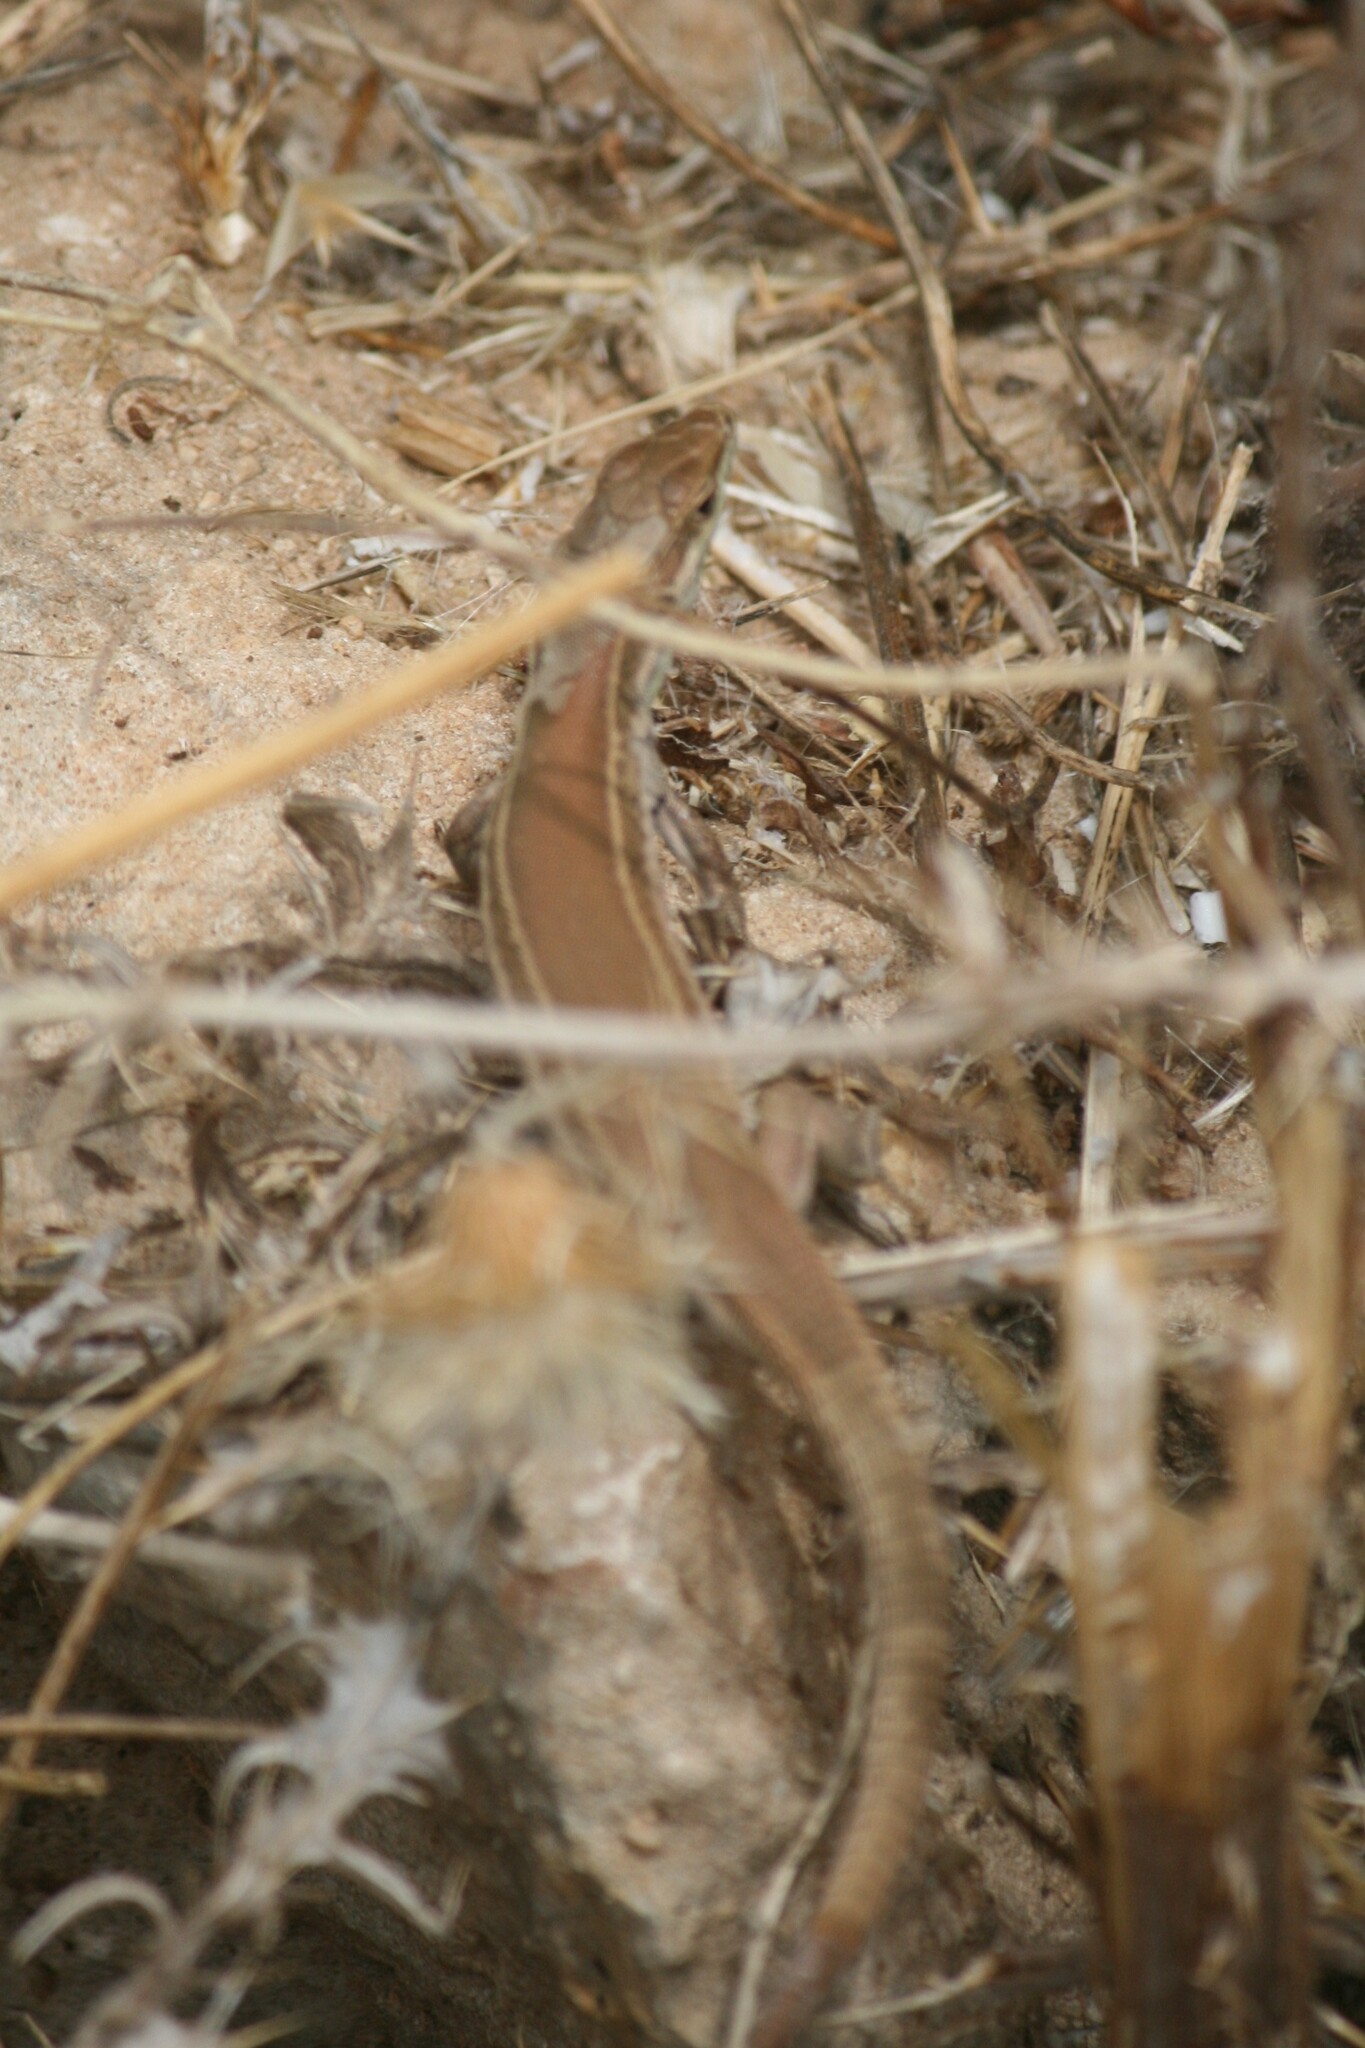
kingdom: Animalia
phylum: Chordata
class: Squamata
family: Lacertidae
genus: Podarcis
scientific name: Podarcis waglerianus
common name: Sicilian wall lizard
